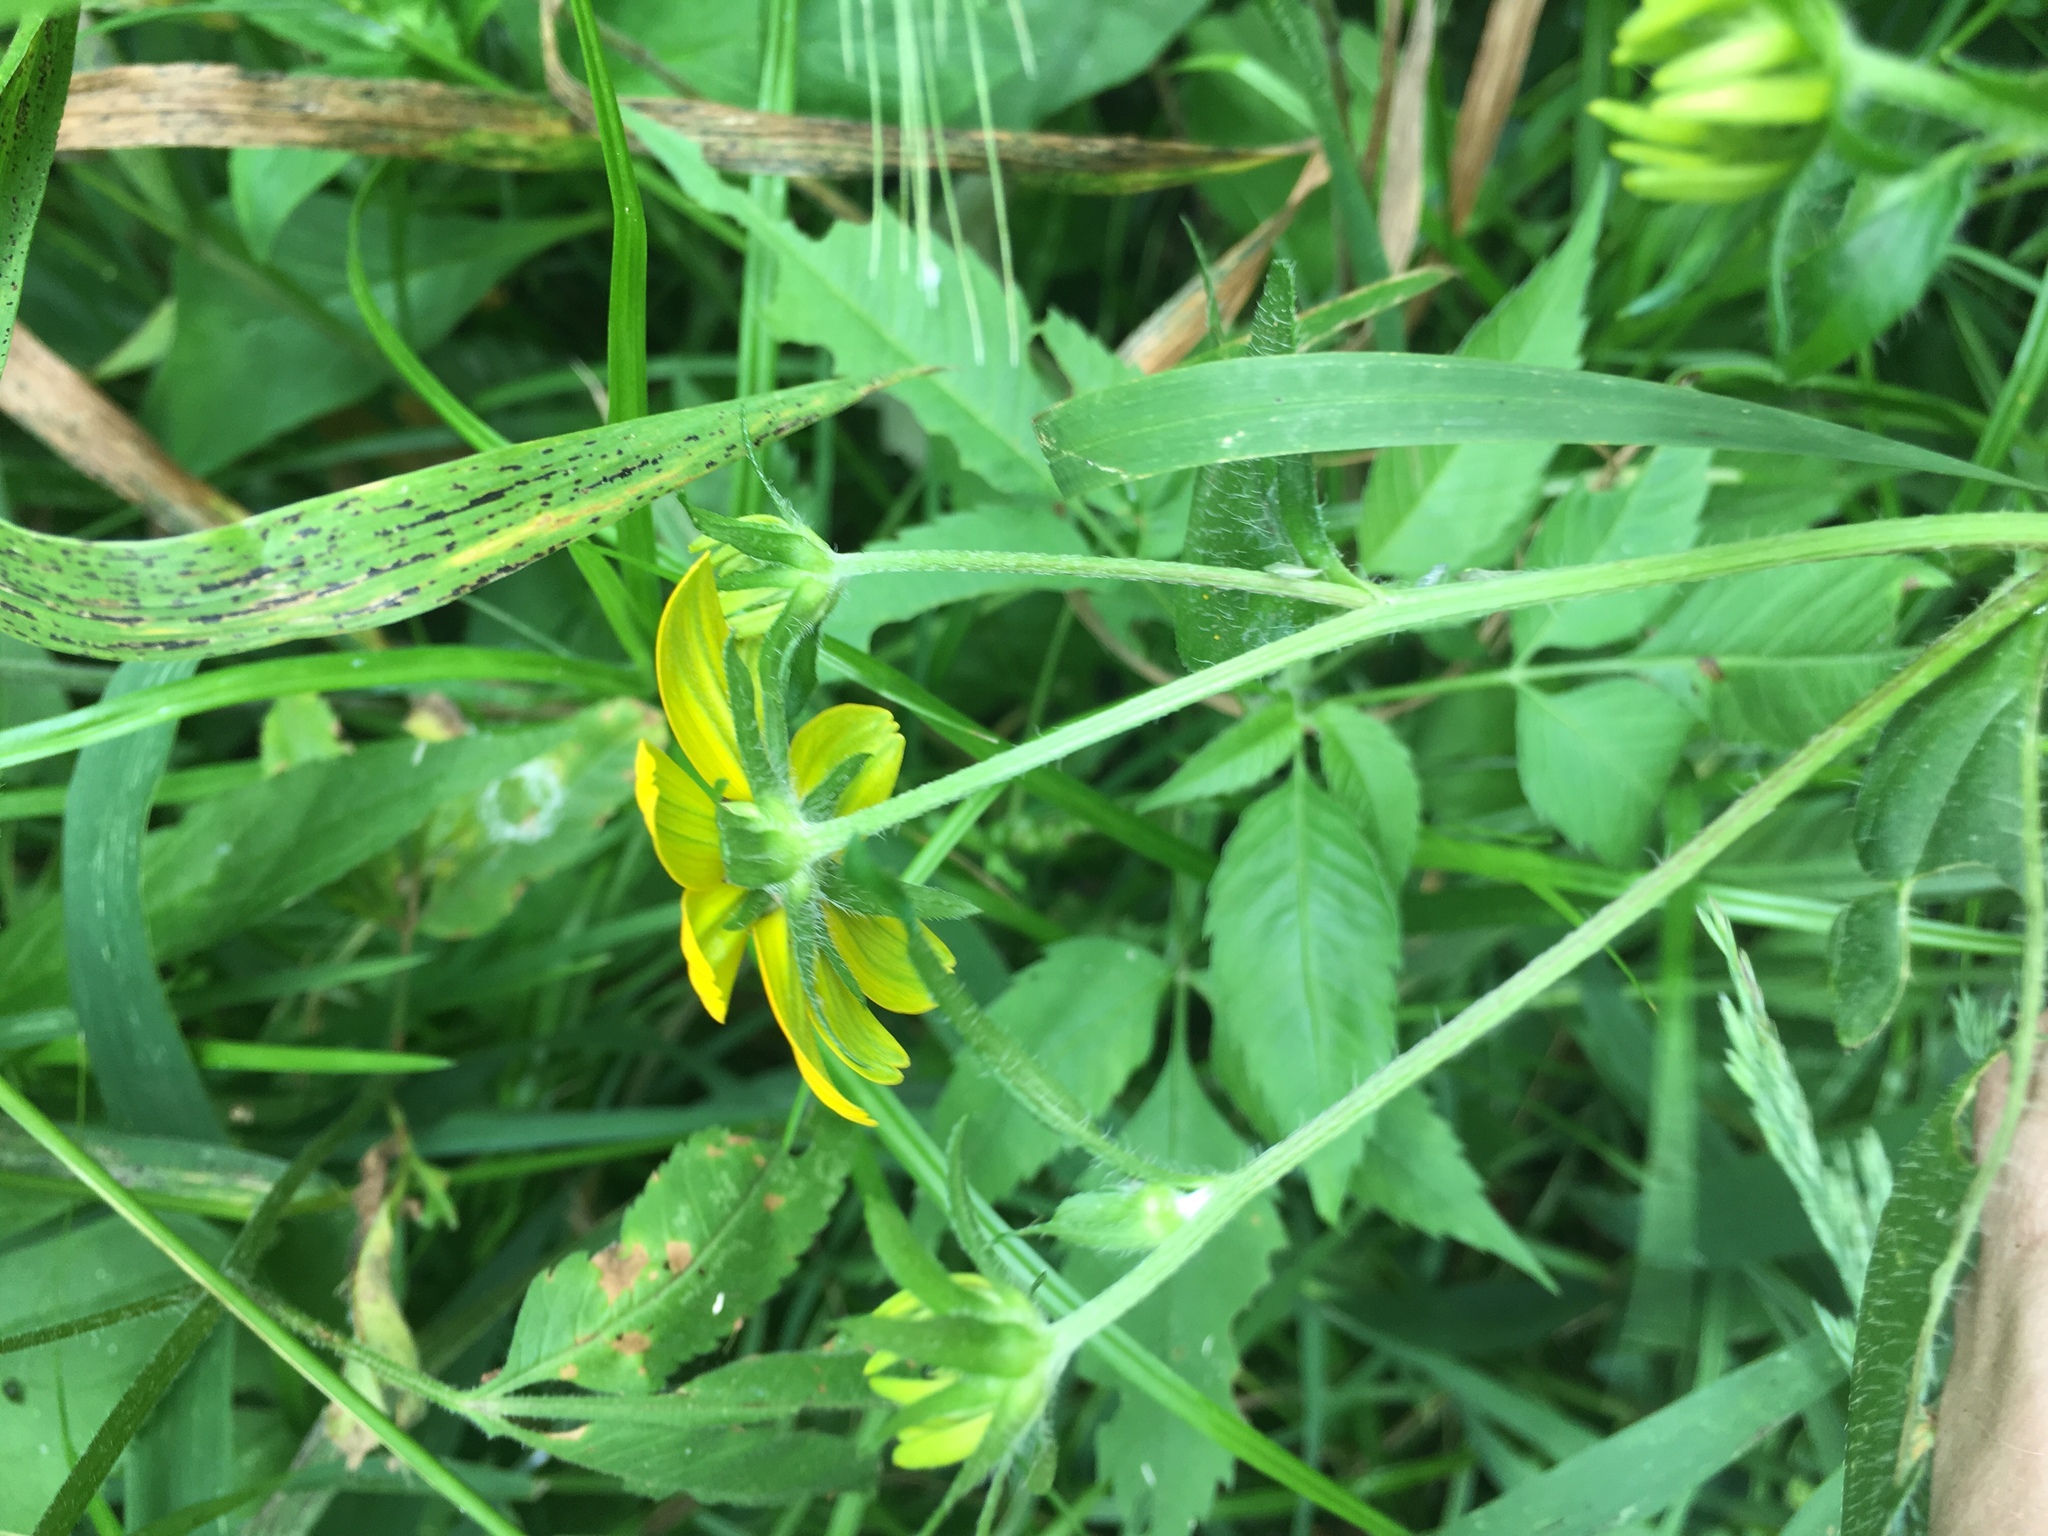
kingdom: Plantae
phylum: Tracheophyta
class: Magnoliopsida
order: Asterales
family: Asteraceae
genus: Rudbeckia
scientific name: Rudbeckia triloba
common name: Thin-leaved coneflower
